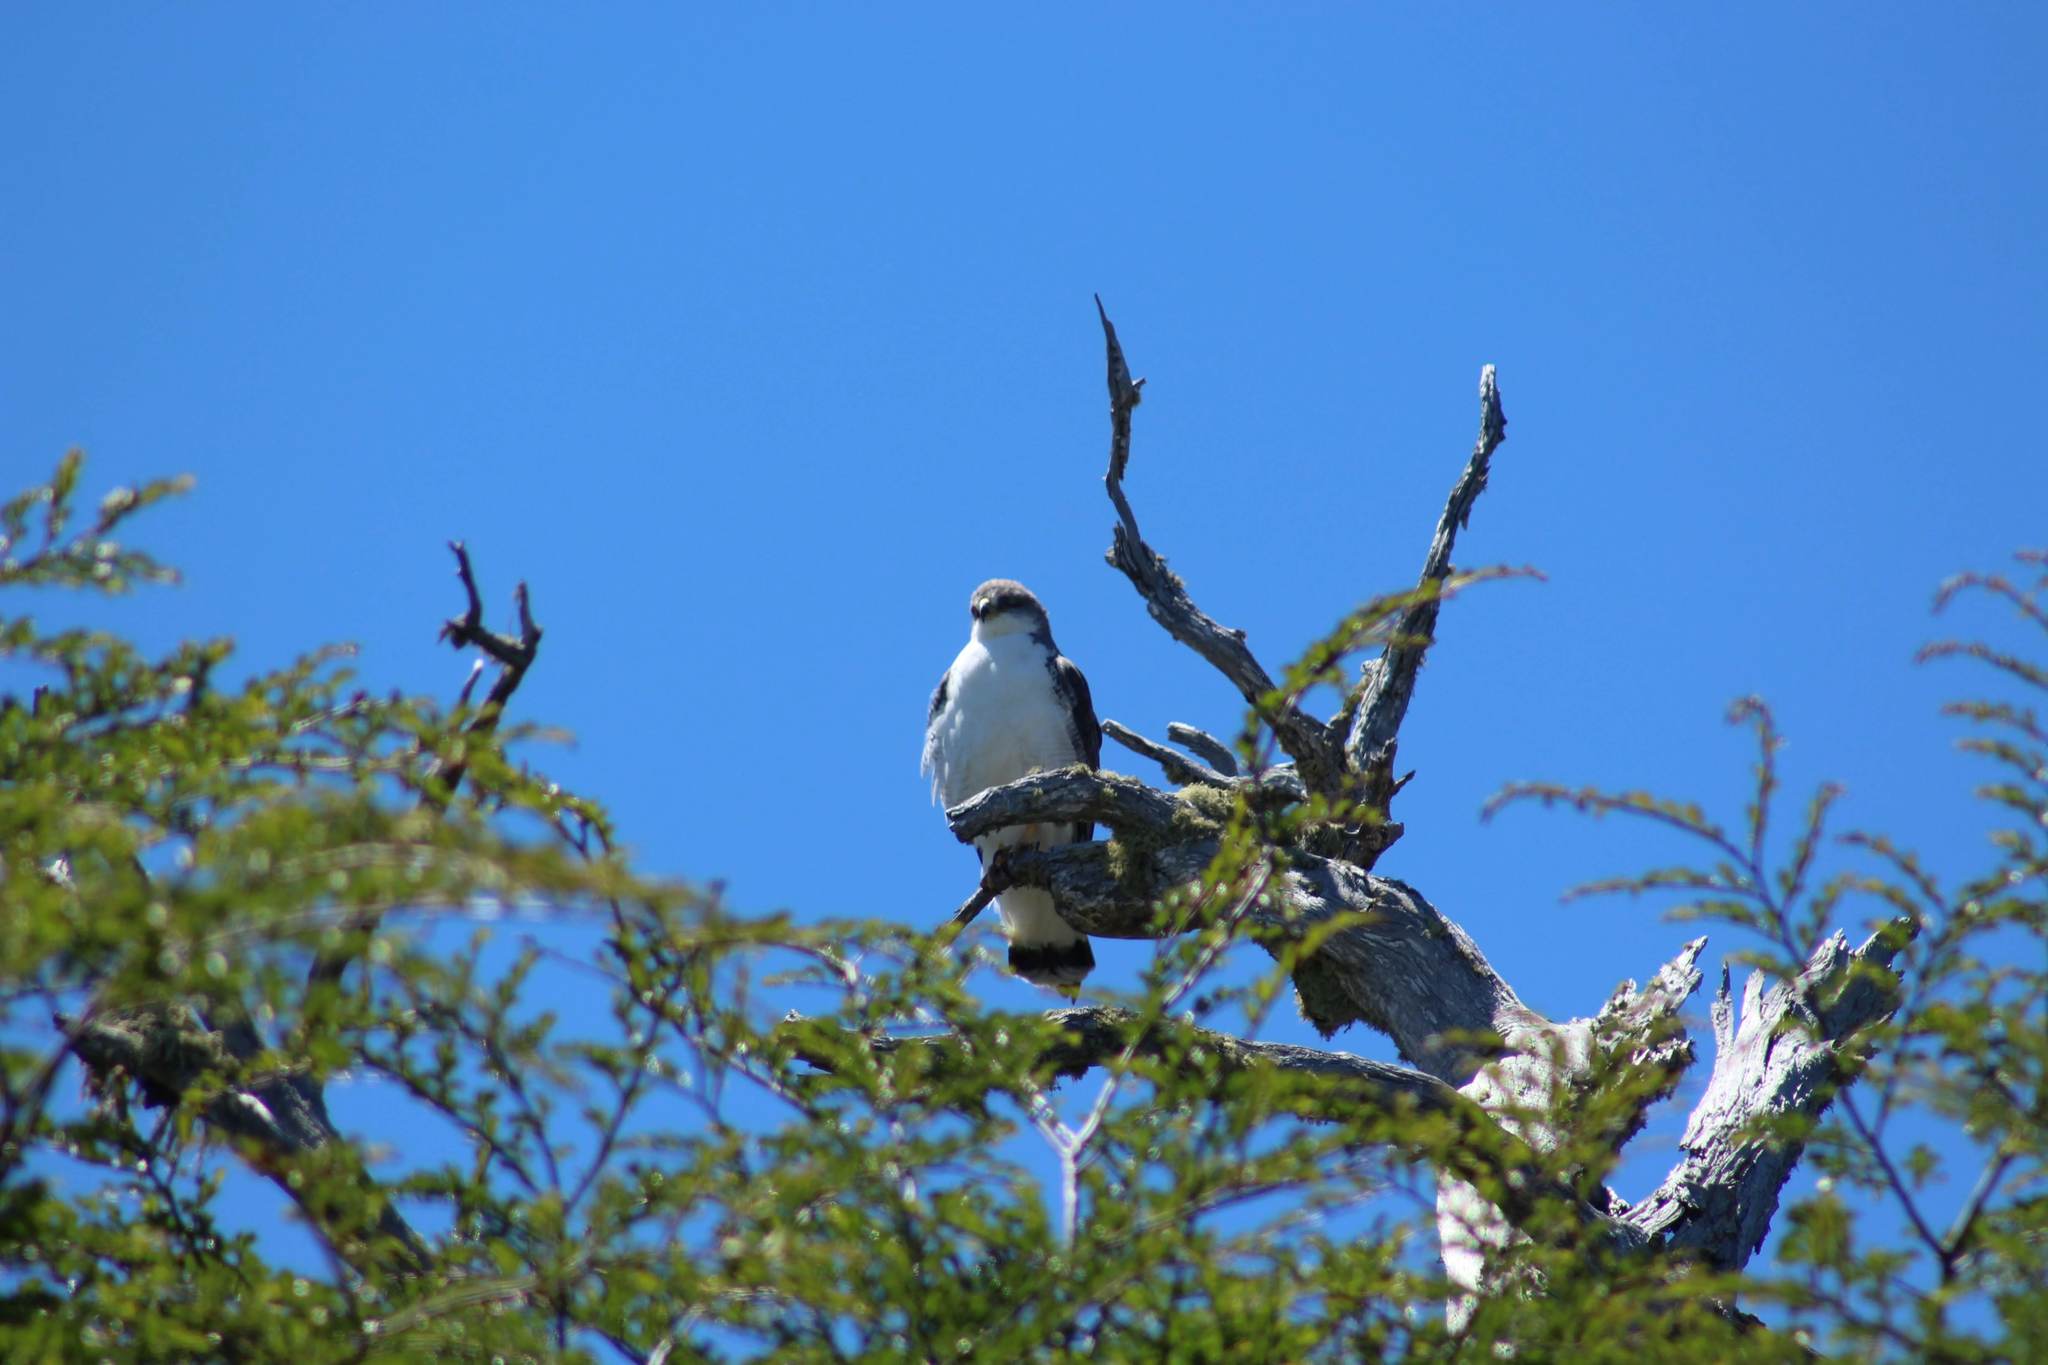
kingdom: Animalia
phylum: Chordata
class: Aves
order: Accipitriformes
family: Accipitridae
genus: Buteo
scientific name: Buteo polyosoma
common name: Variable hawk
